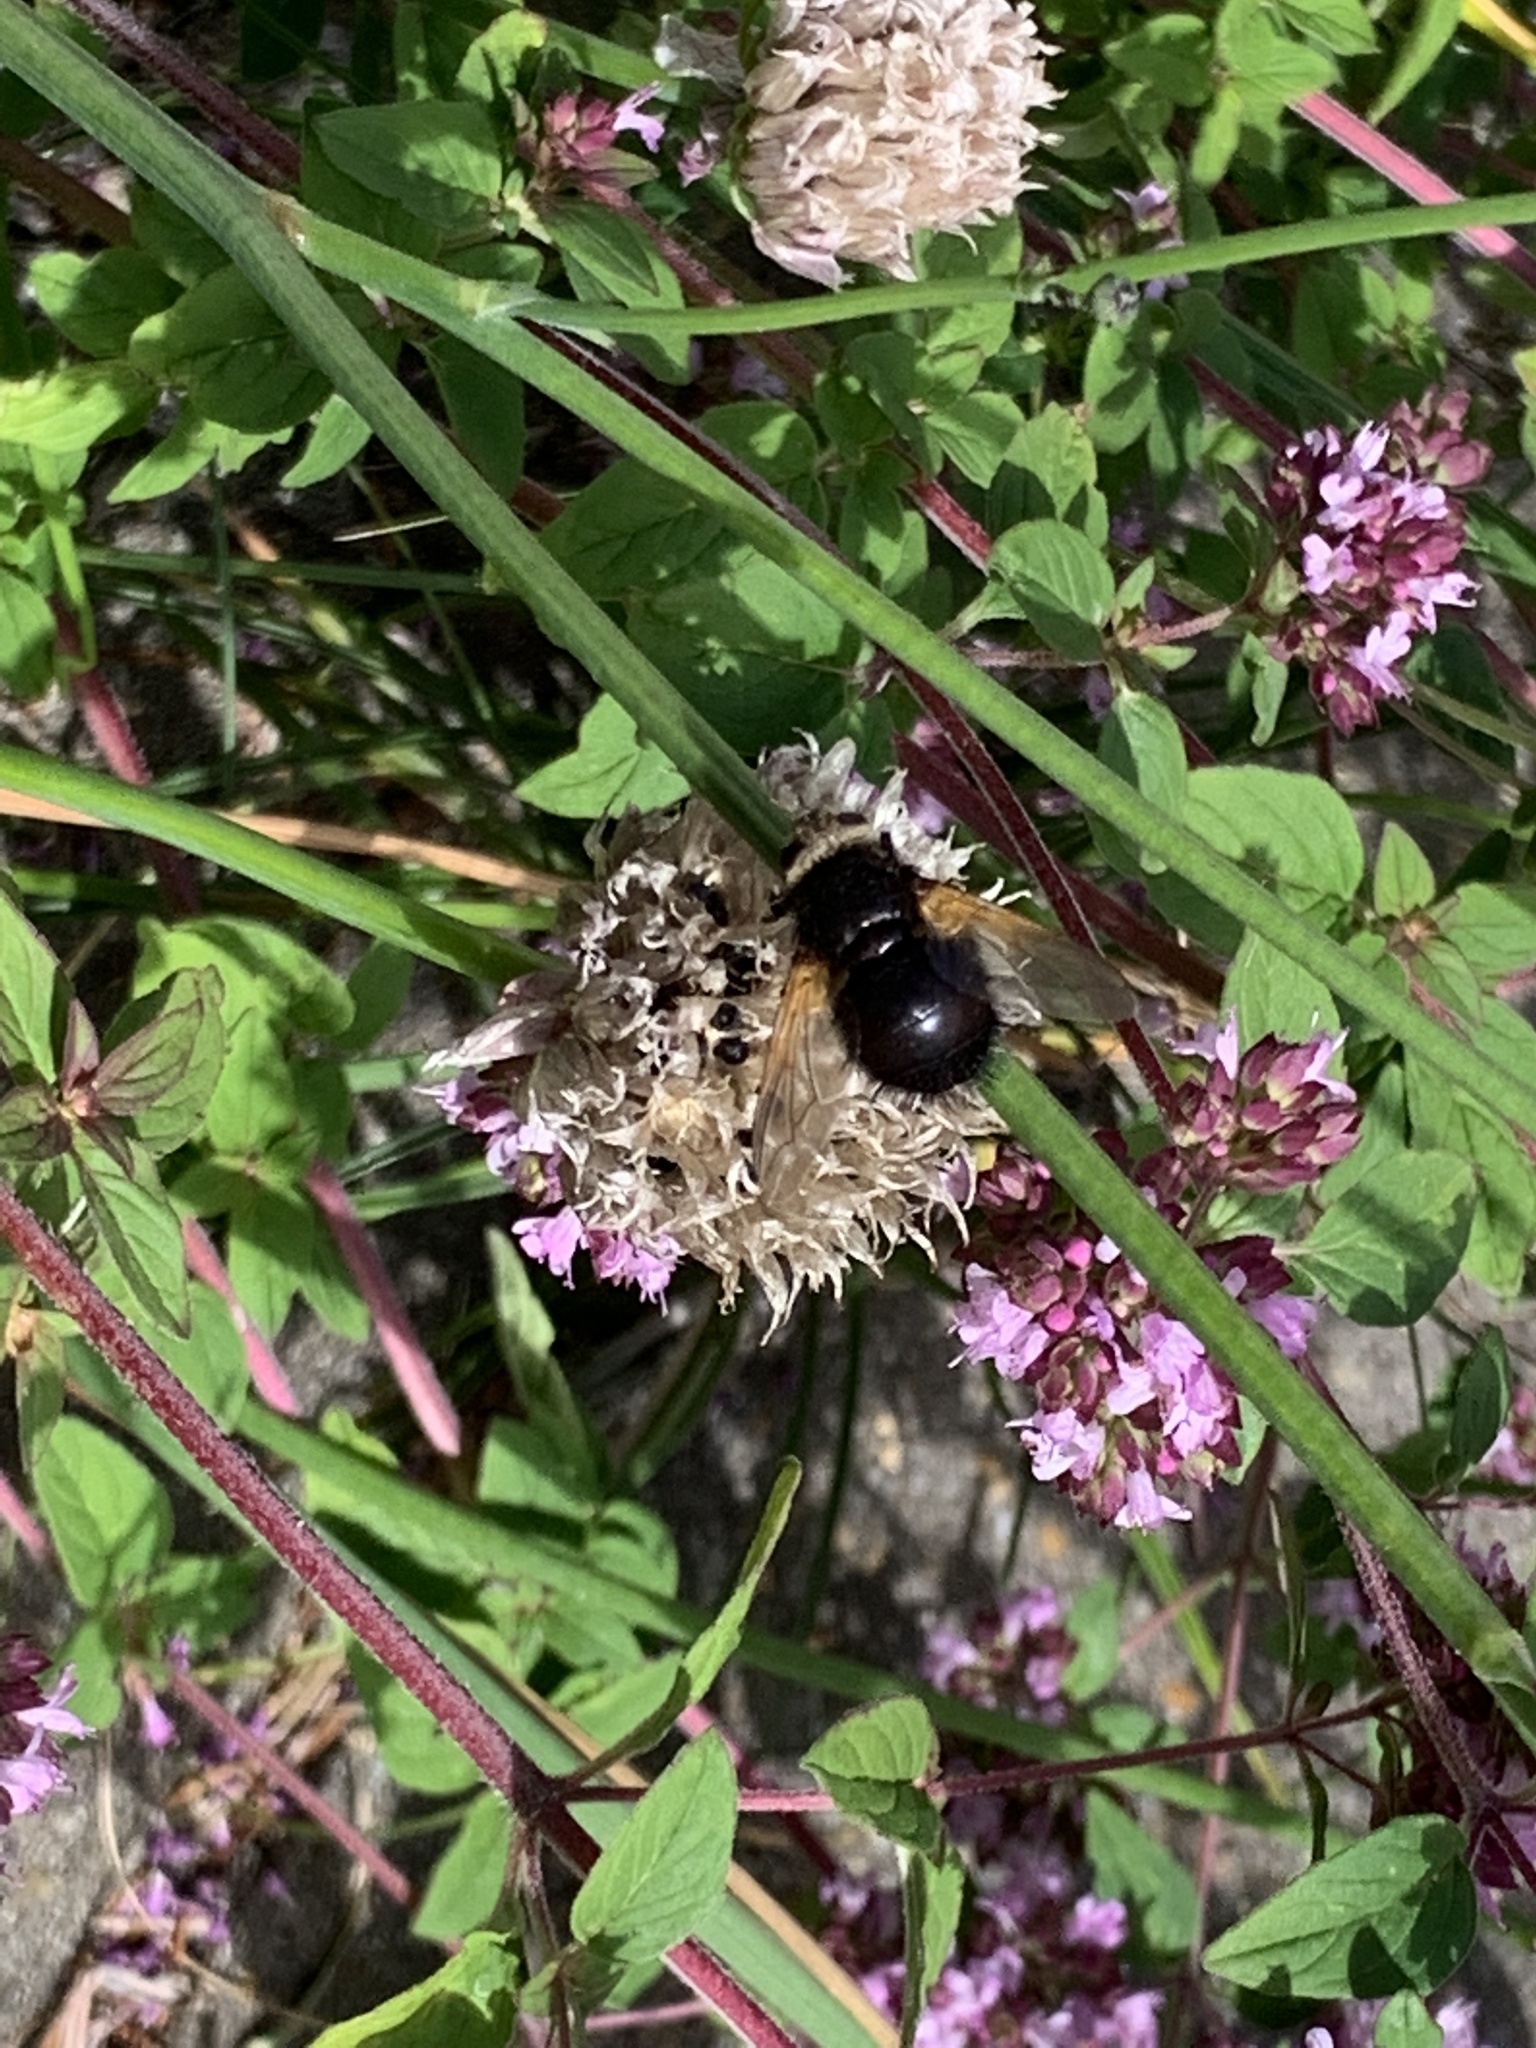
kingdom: Animalia
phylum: Arthropoda
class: Insecta
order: Diptera
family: Tachinidae
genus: Tachina
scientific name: Tachina grossa
